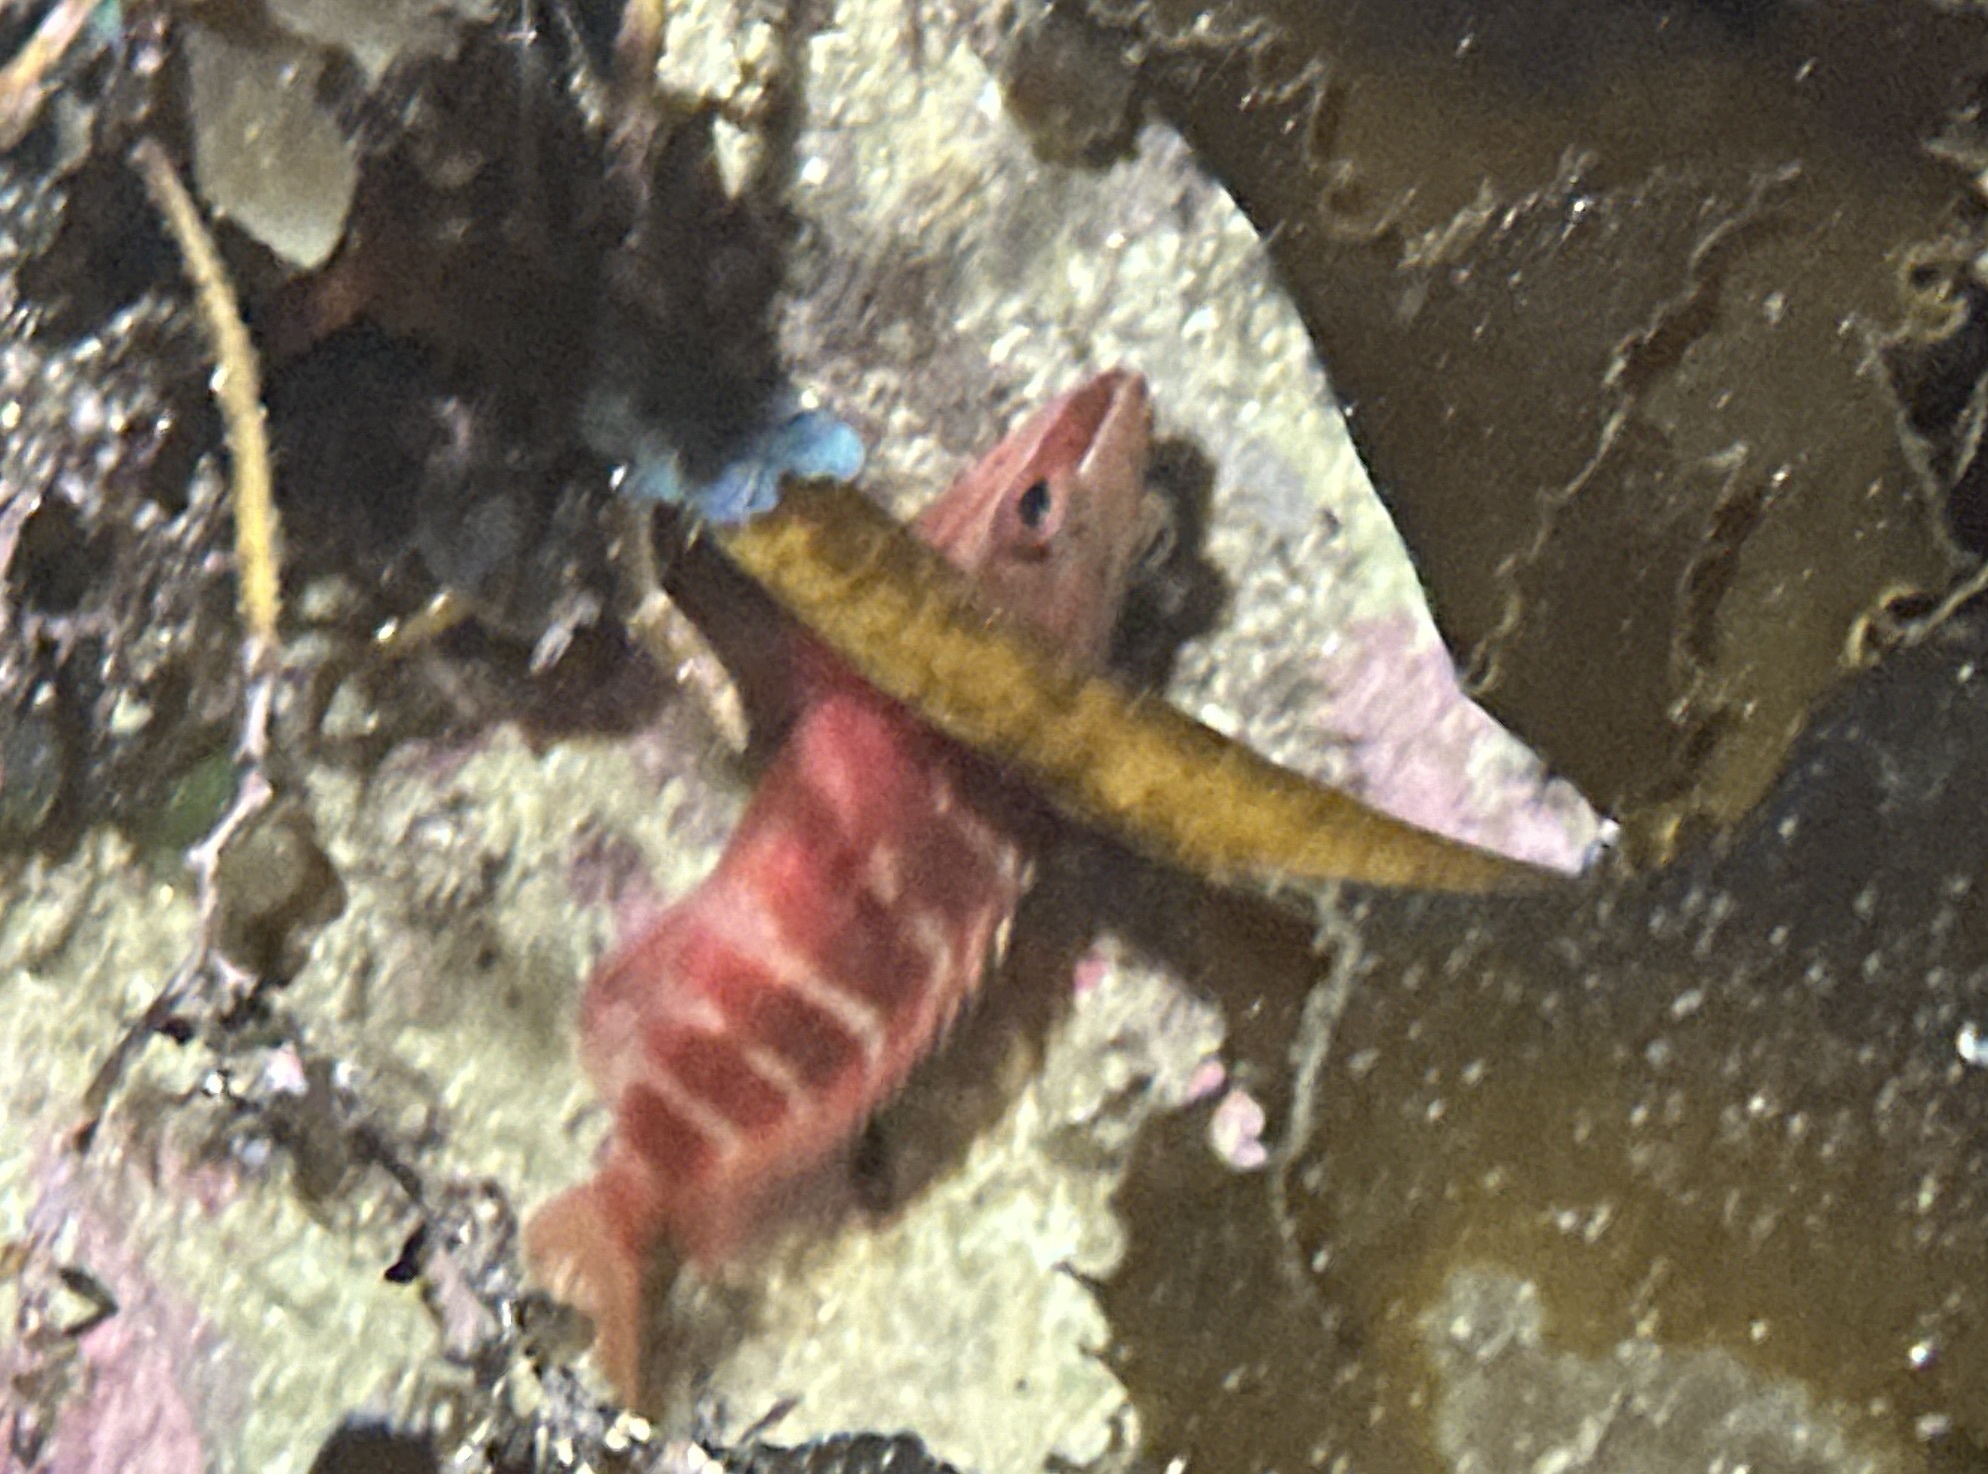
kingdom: Animalia
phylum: Chordata
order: Perciformes
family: Serranidae
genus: Hypoplectrodes
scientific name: Hypoplectrodes maccullochi
